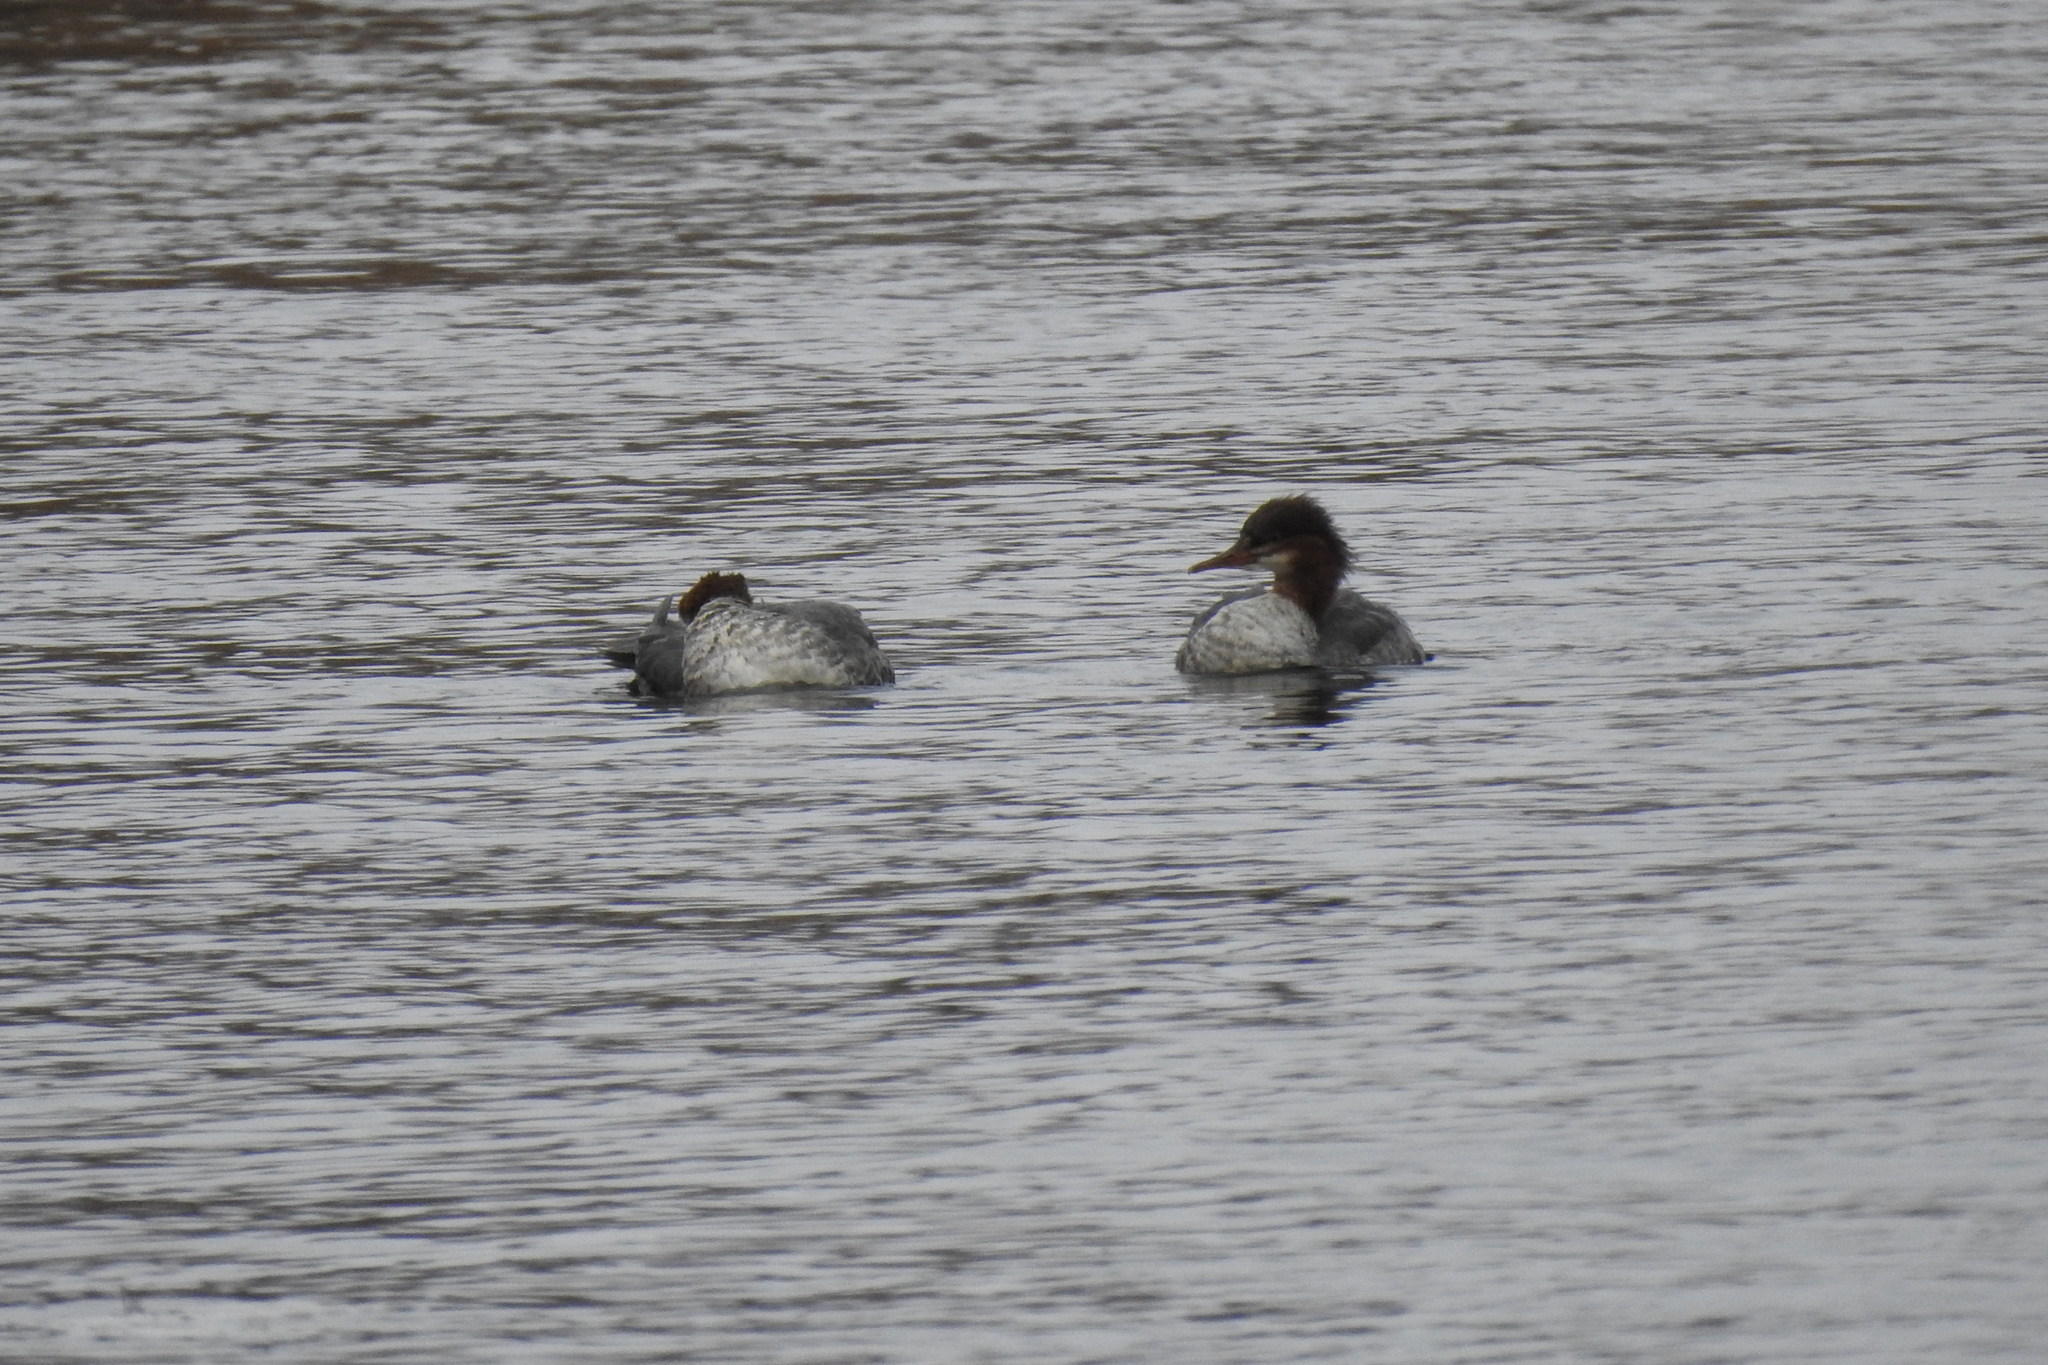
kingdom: Animalia
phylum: Chordata
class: Aves
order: Anseriformes
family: Anatidae
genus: Mergus
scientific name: Mergus merganser
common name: Common merganser
